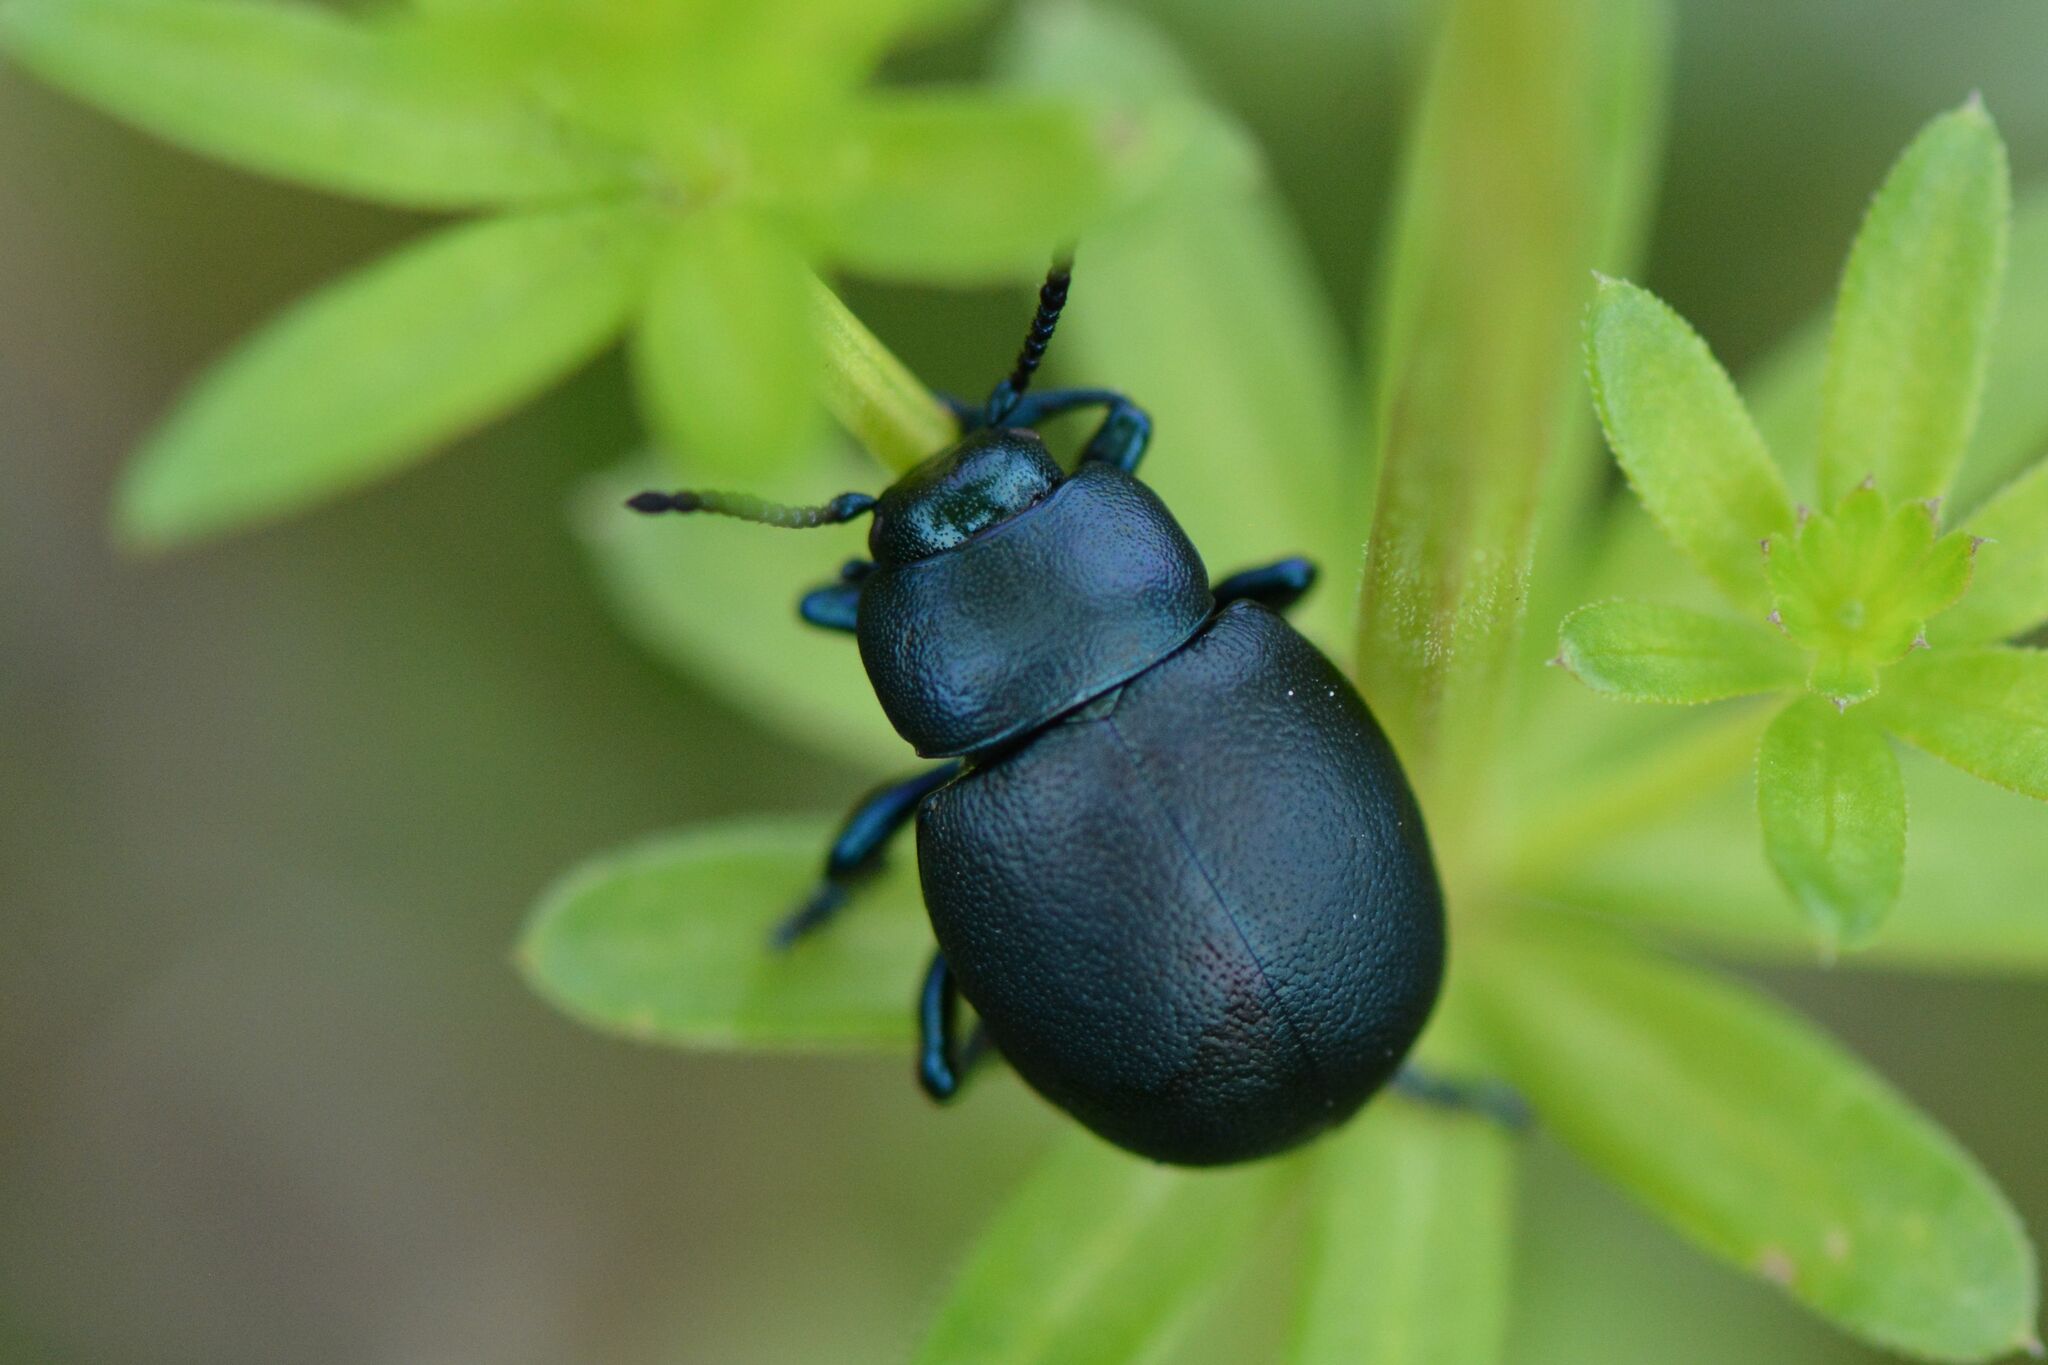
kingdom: Animalia
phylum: Arthropoda
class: Insecta
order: Coleoptera
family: Chrysomelidae
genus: Timarcha
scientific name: Timarcha goettingensis
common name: Small bloody-nosed beetle
